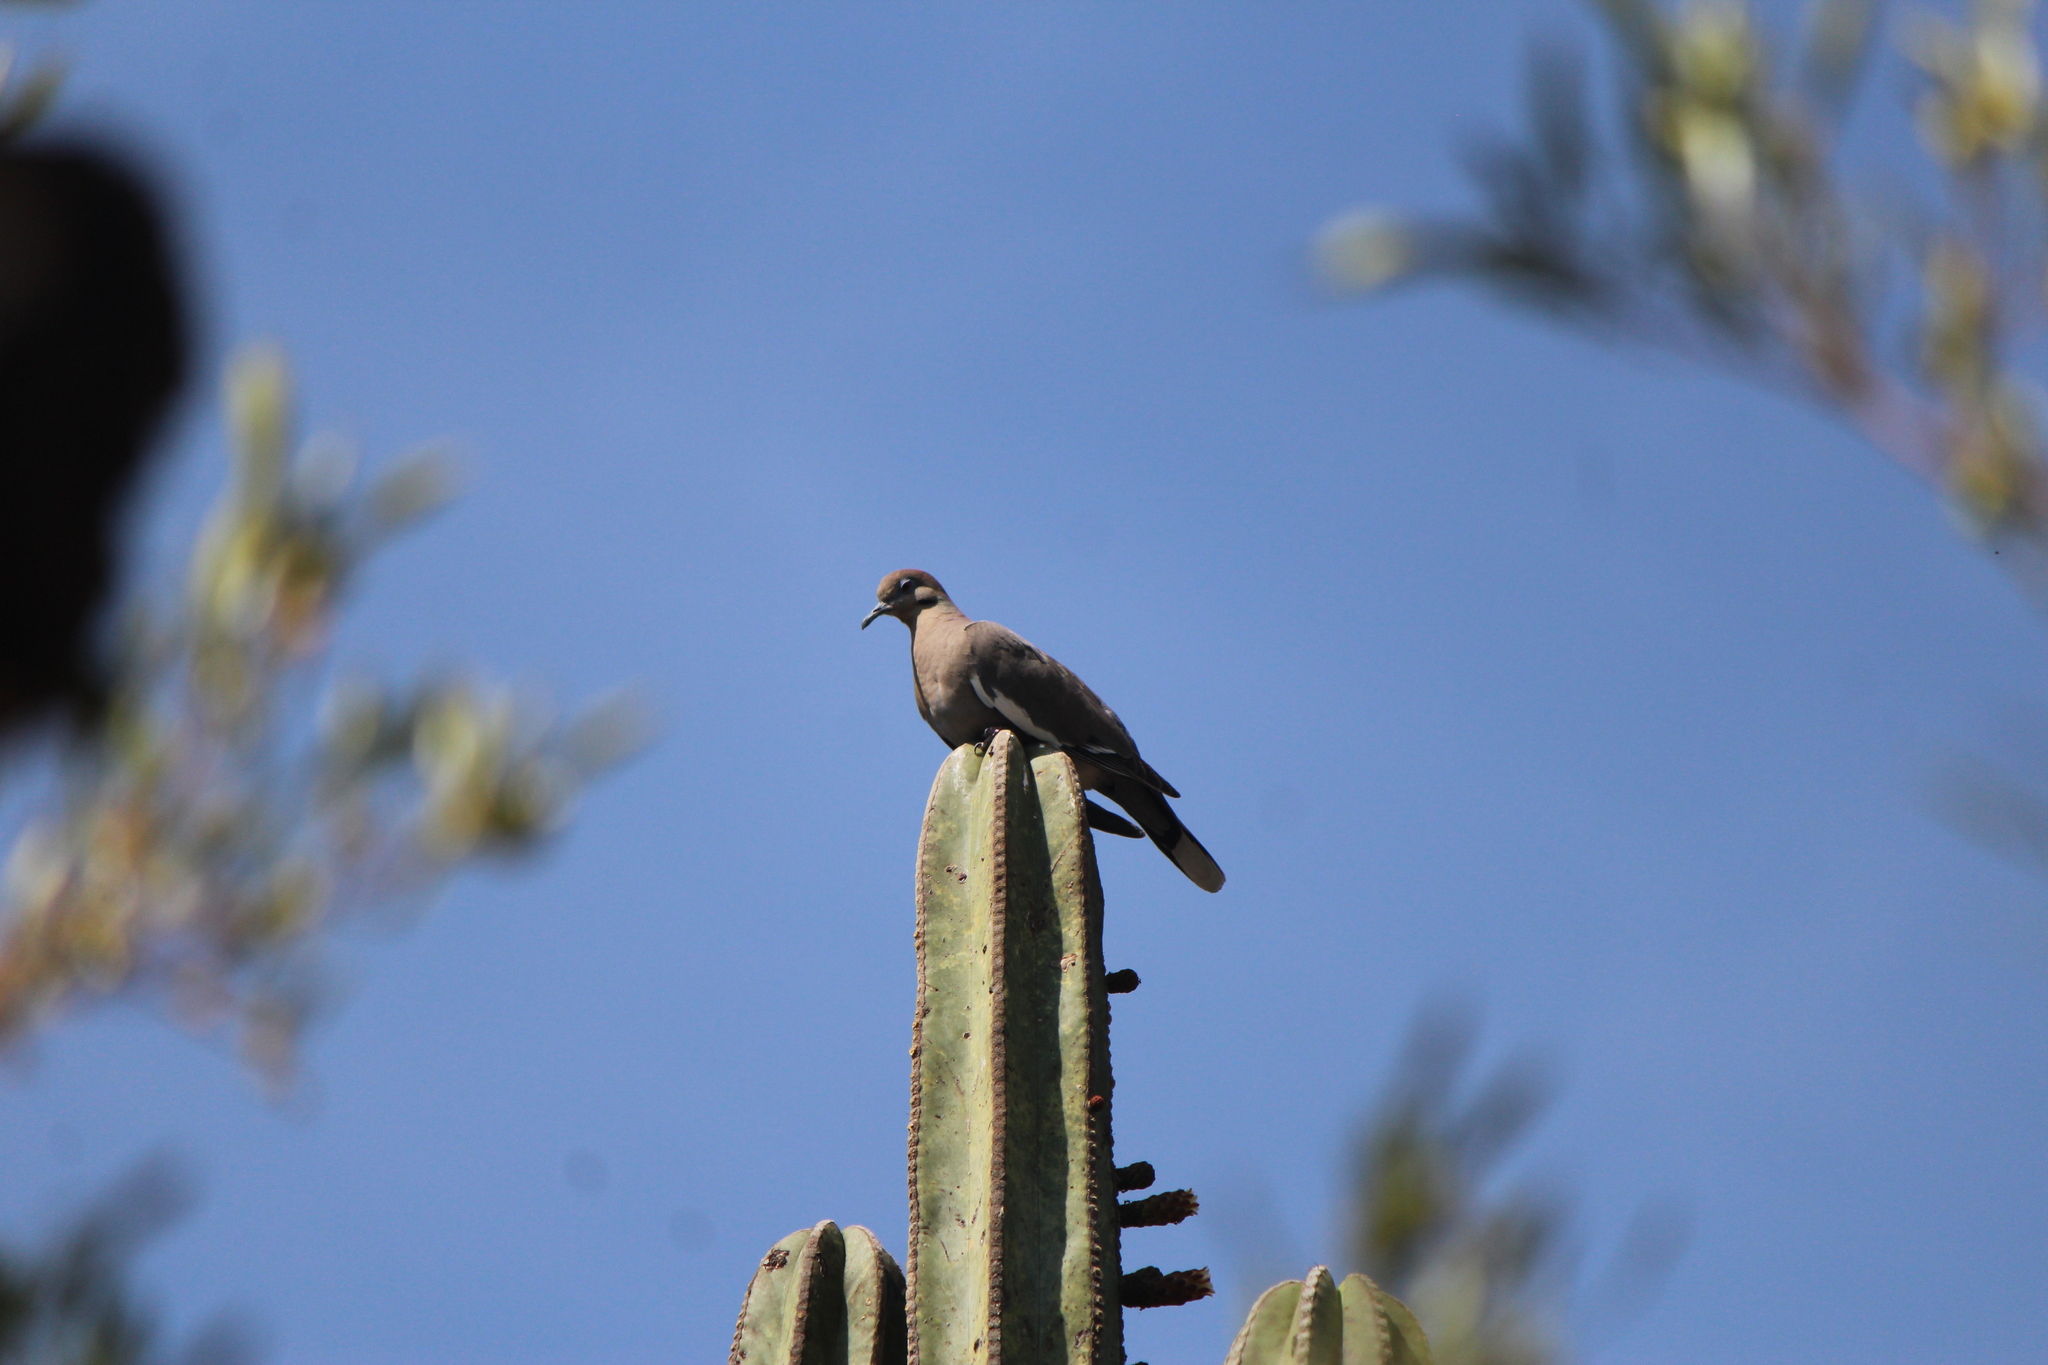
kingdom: Animalia
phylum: Chordata
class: Aves
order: Columbiformes
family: Columbidae
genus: Zenaida
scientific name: Zenaida asiatica
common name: White-winged dove
